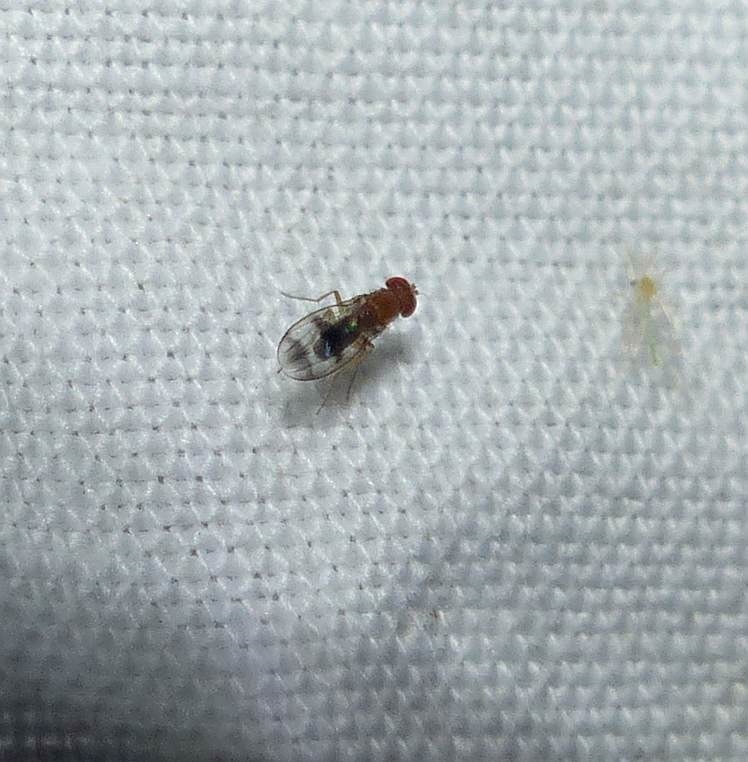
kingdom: Animalia
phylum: Arthropoda
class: Insecta
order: Diptera
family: Drosophilidae
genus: Chymomyza
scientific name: Chymomyza amoena
